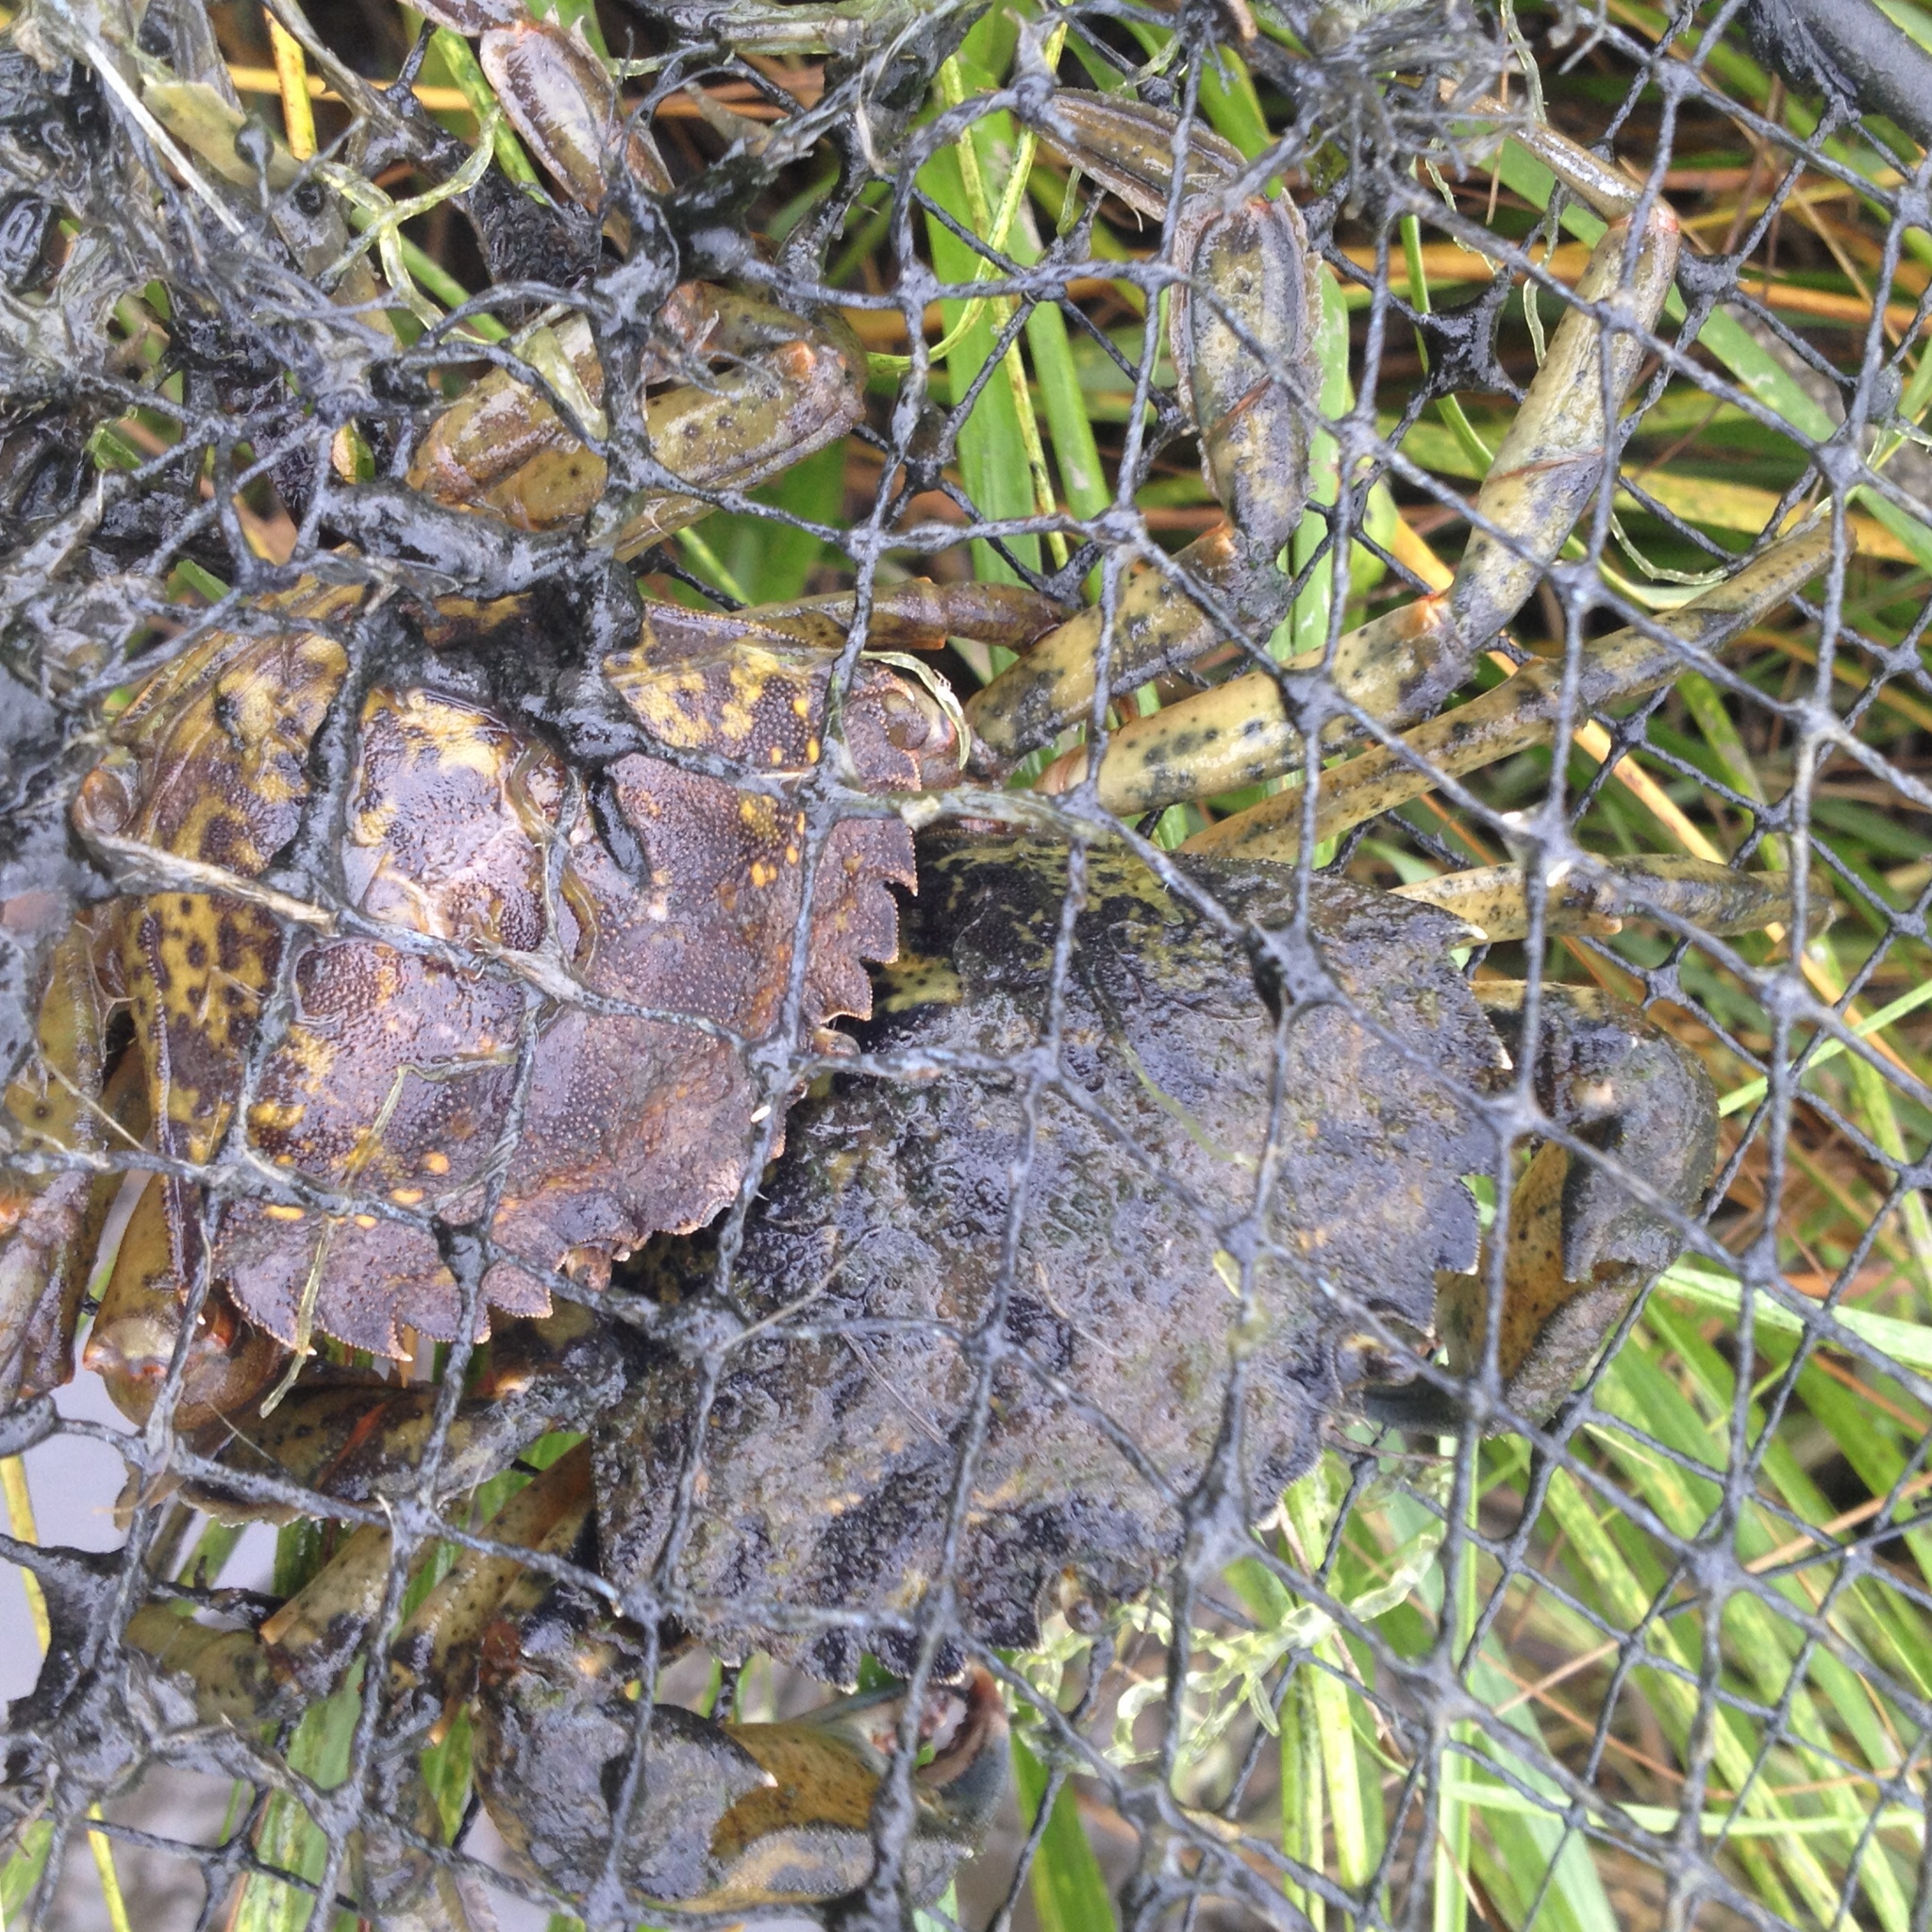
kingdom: Animalia
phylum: Arthropoda
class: Malacostraca
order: Decapoda
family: Carcinidae
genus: Carcinus
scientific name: Carcinus maenas
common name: European green crab
